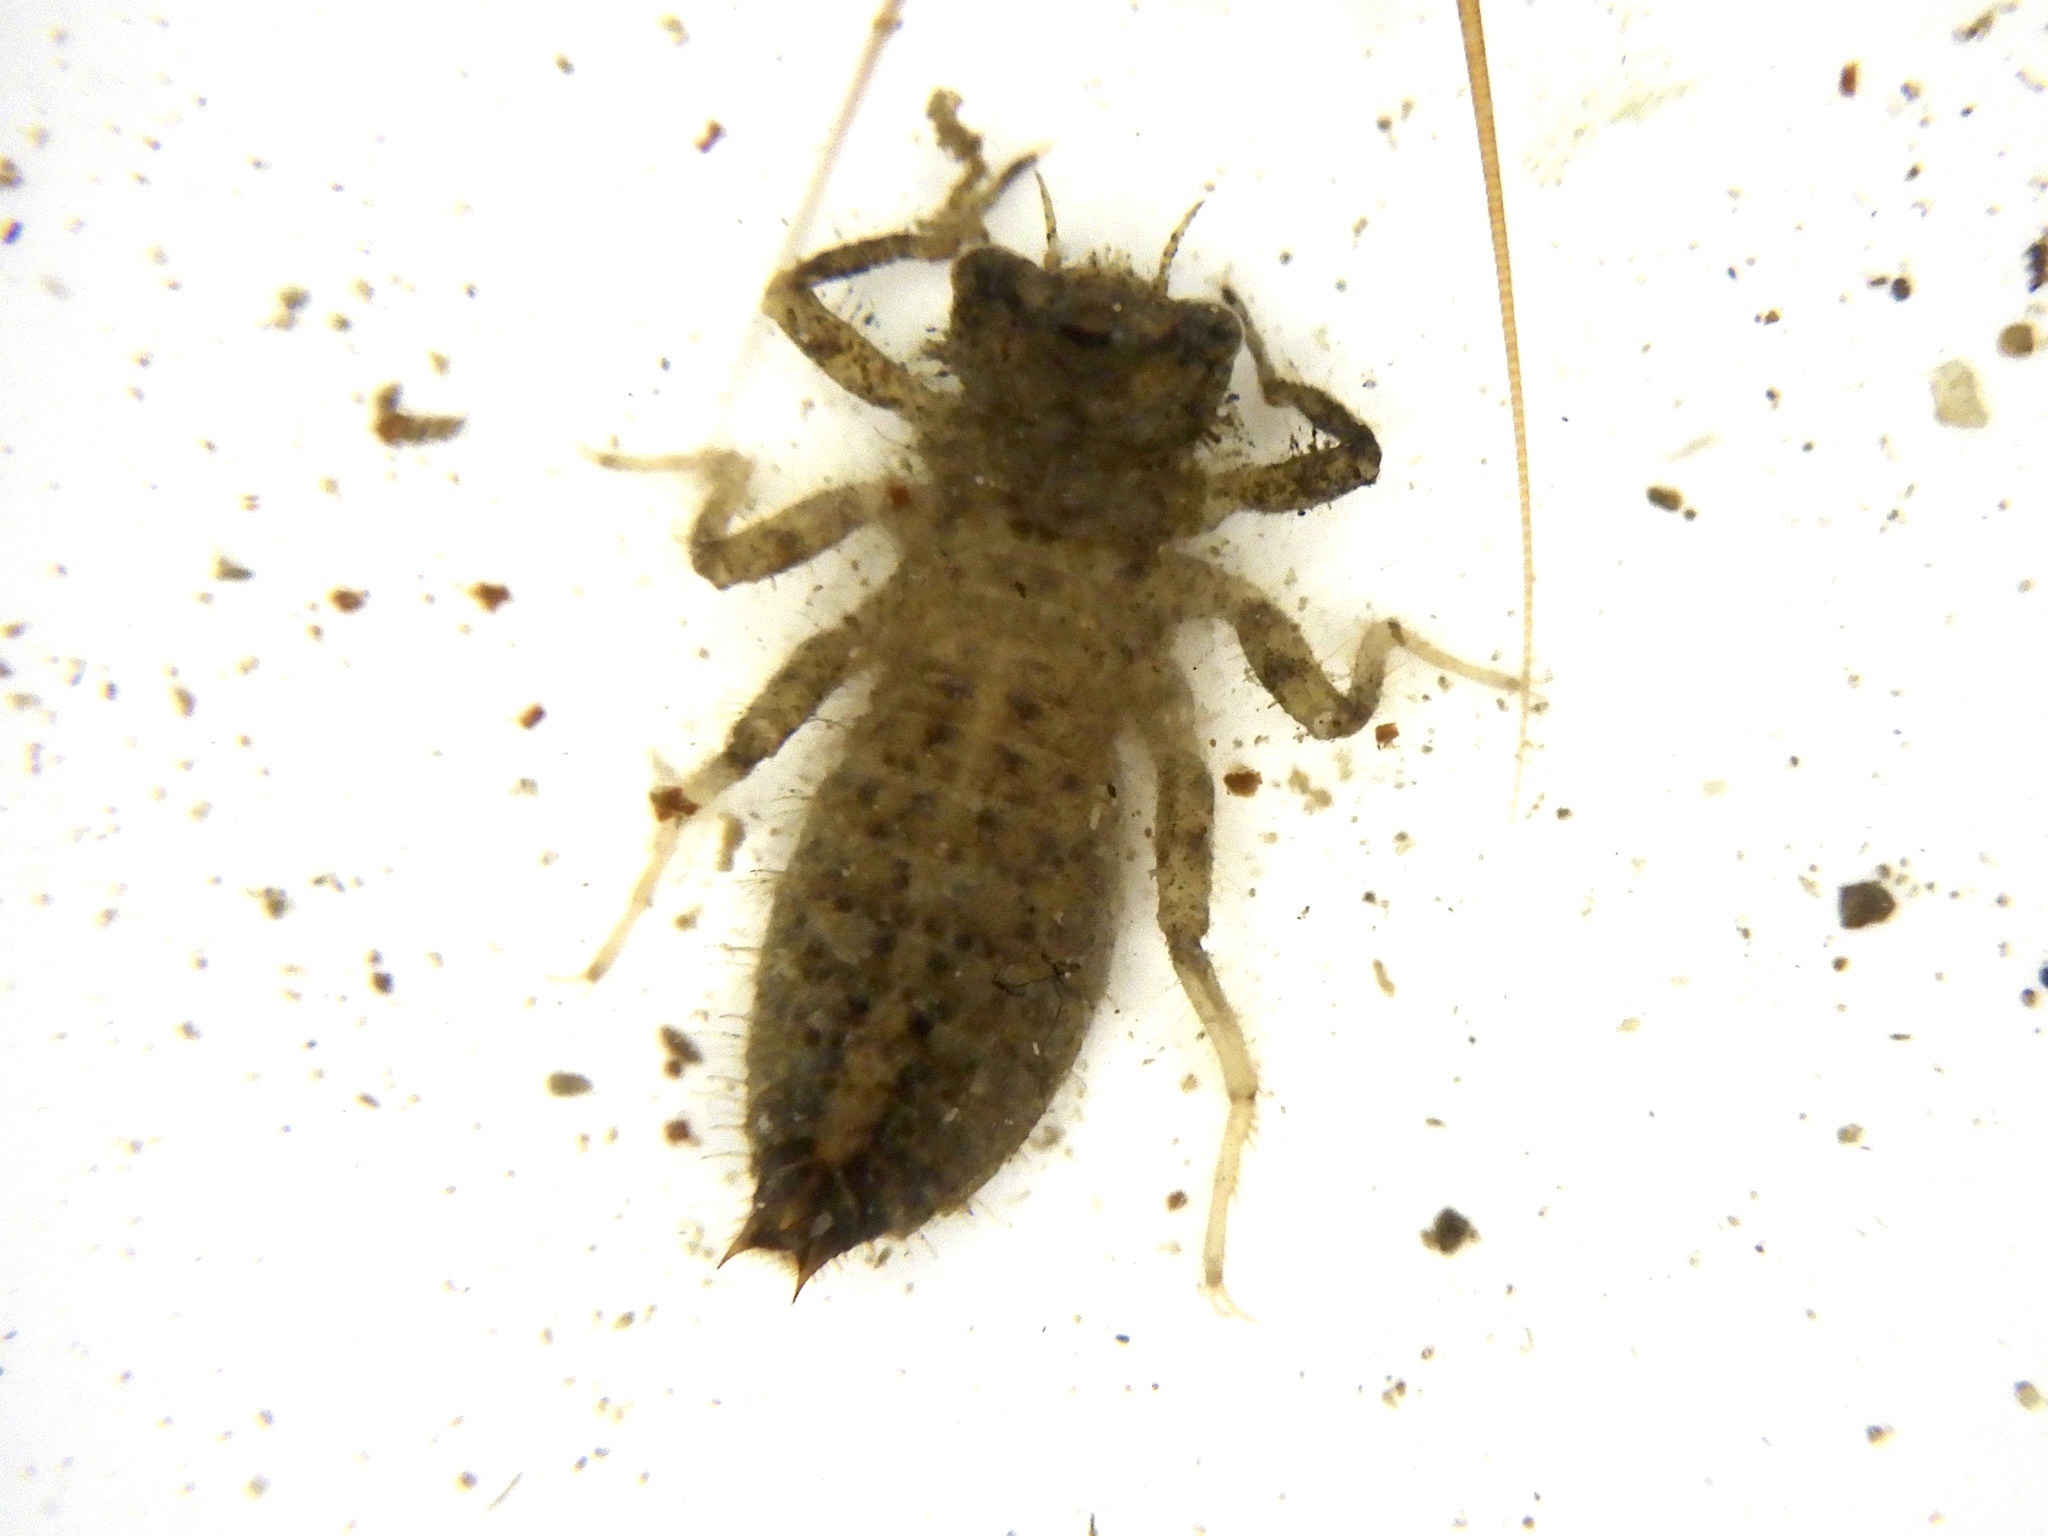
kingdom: Animalia
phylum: Arthropoda
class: Insecta
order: Odonata
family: Cordulegastridae
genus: Anotogaster
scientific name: Anotogaster sieboldii
